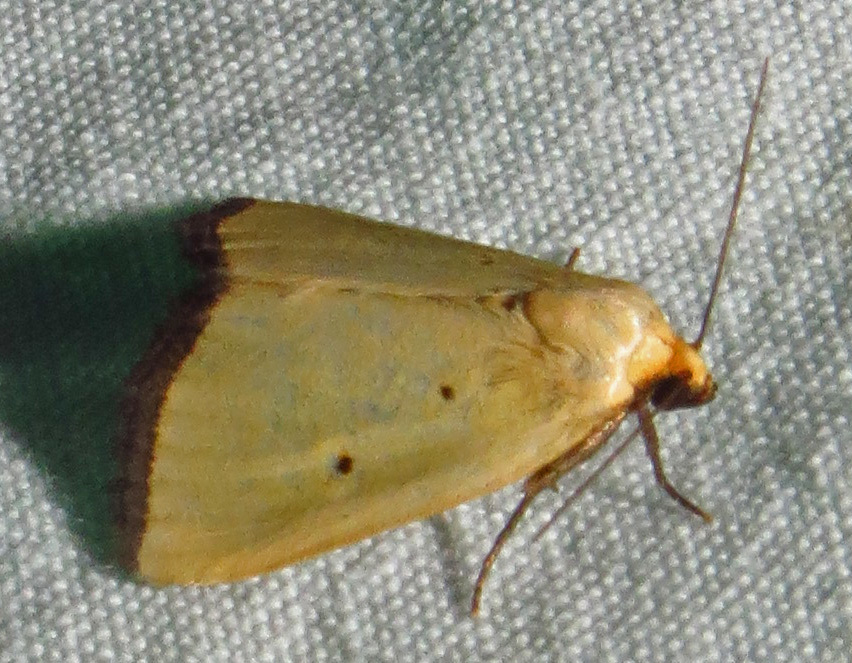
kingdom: Animalia
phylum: Arthropoda
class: Insecta
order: Lepidoptera
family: Noctuidae
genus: Marimatha
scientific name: Marimatha nigrofimbria
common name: Black-bordered lemon moth
